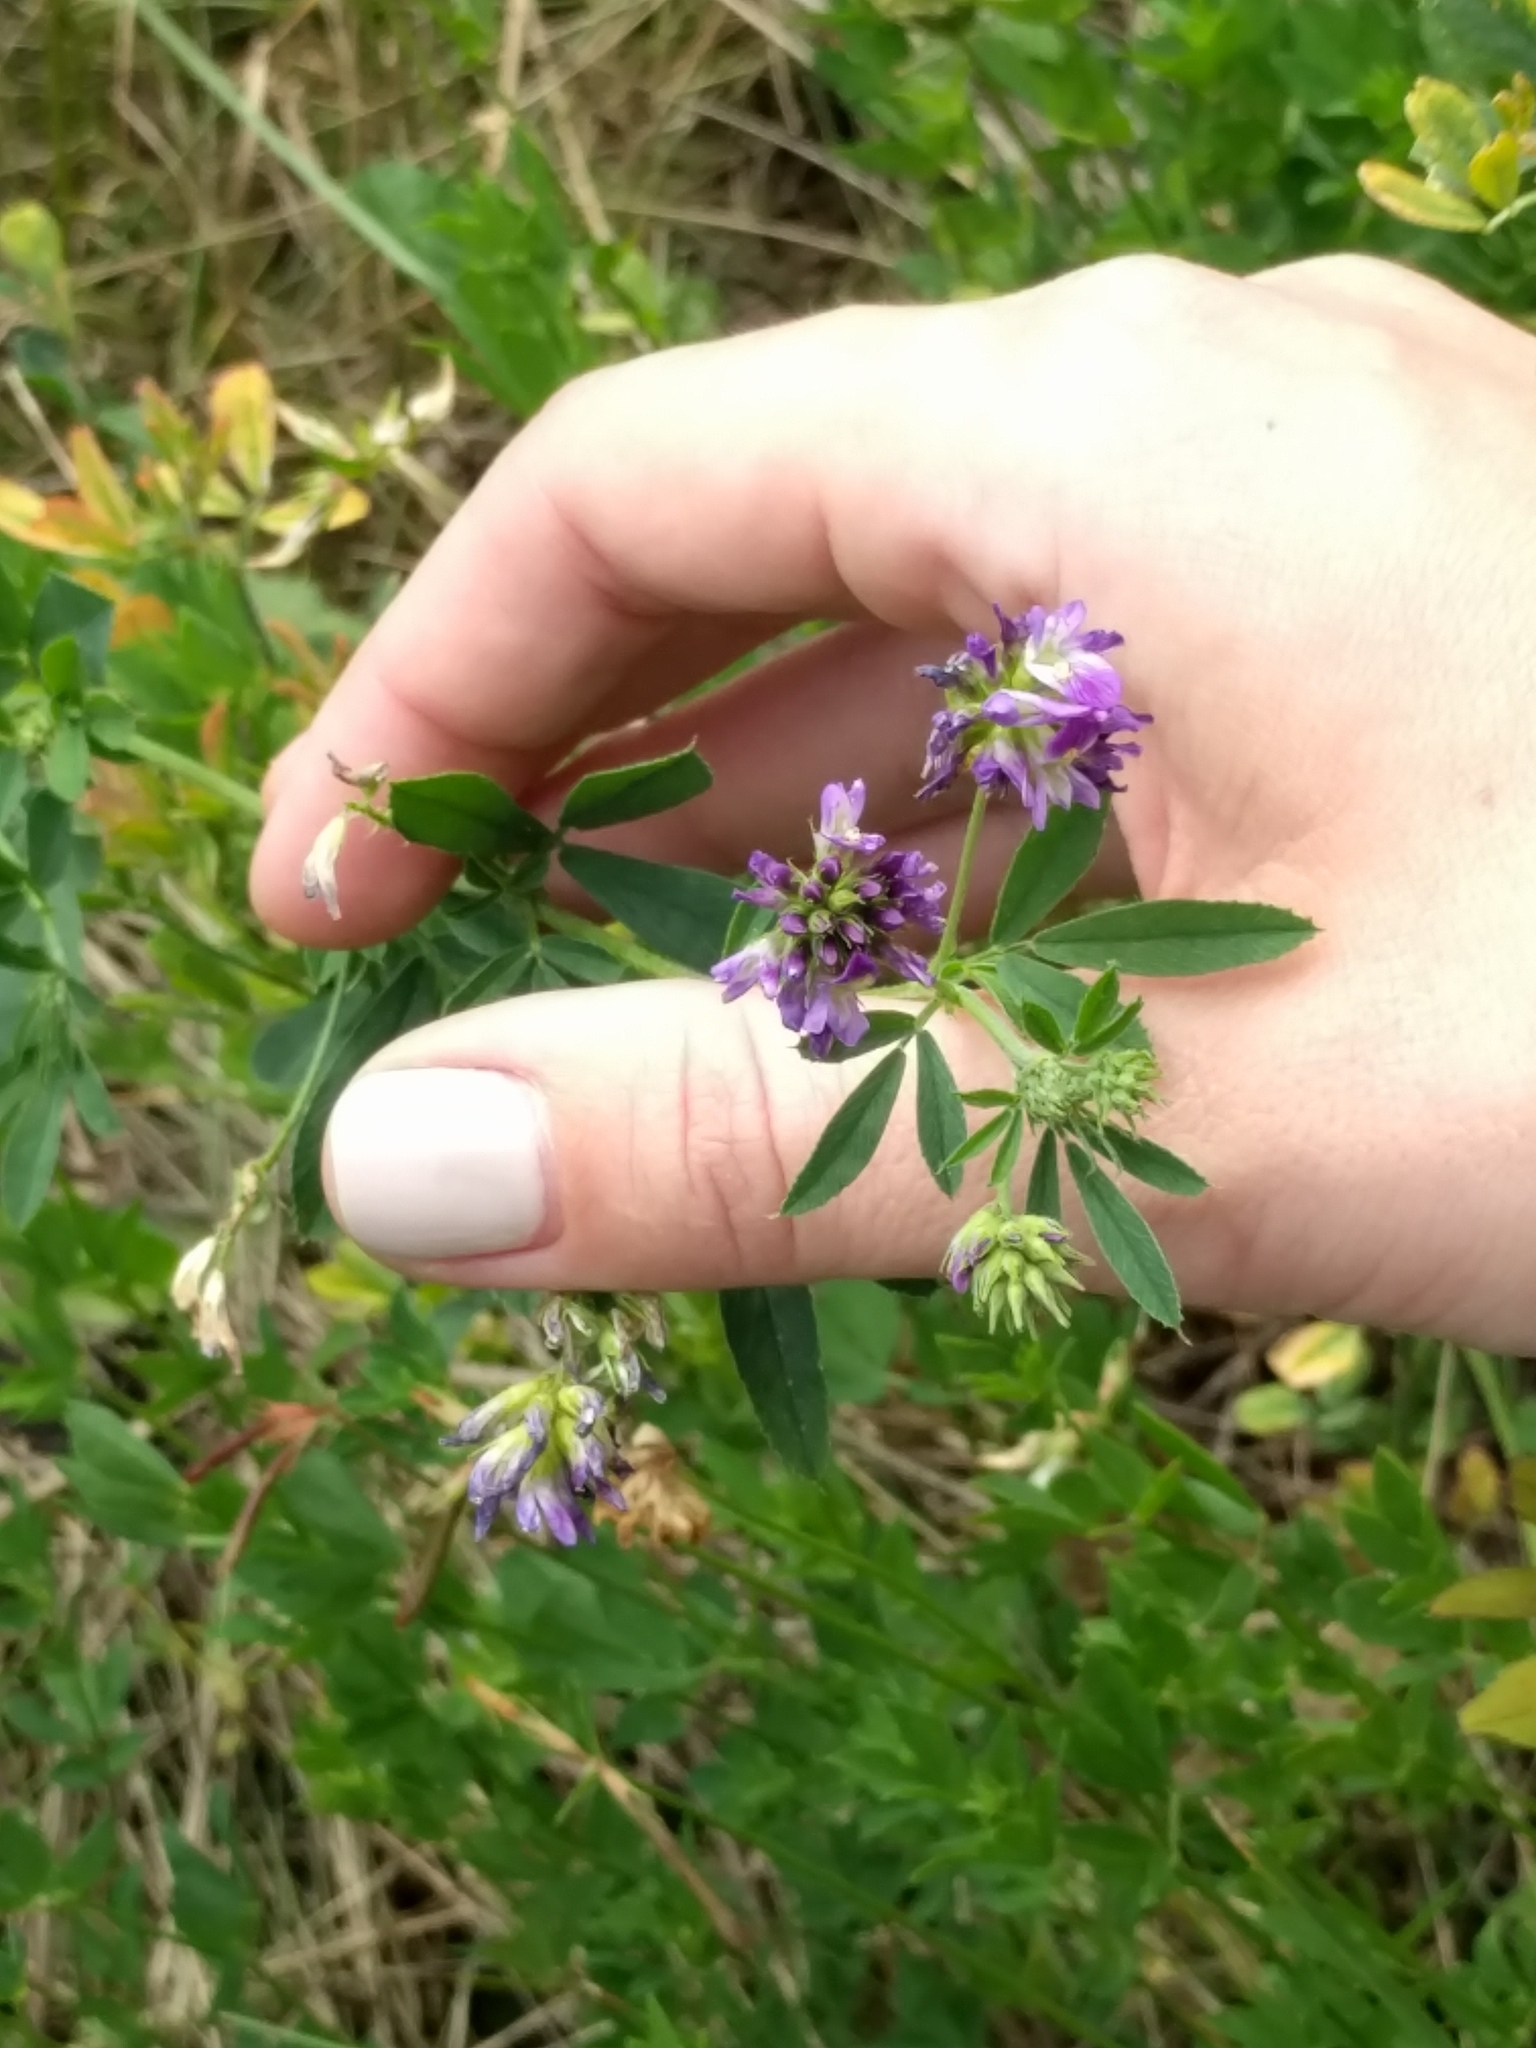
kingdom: Plantae
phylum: Tracheophyta
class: Magnoliopsida
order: Fabales
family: Fabaceae
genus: Medicago
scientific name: Medicago sativa
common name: Alfalfa
